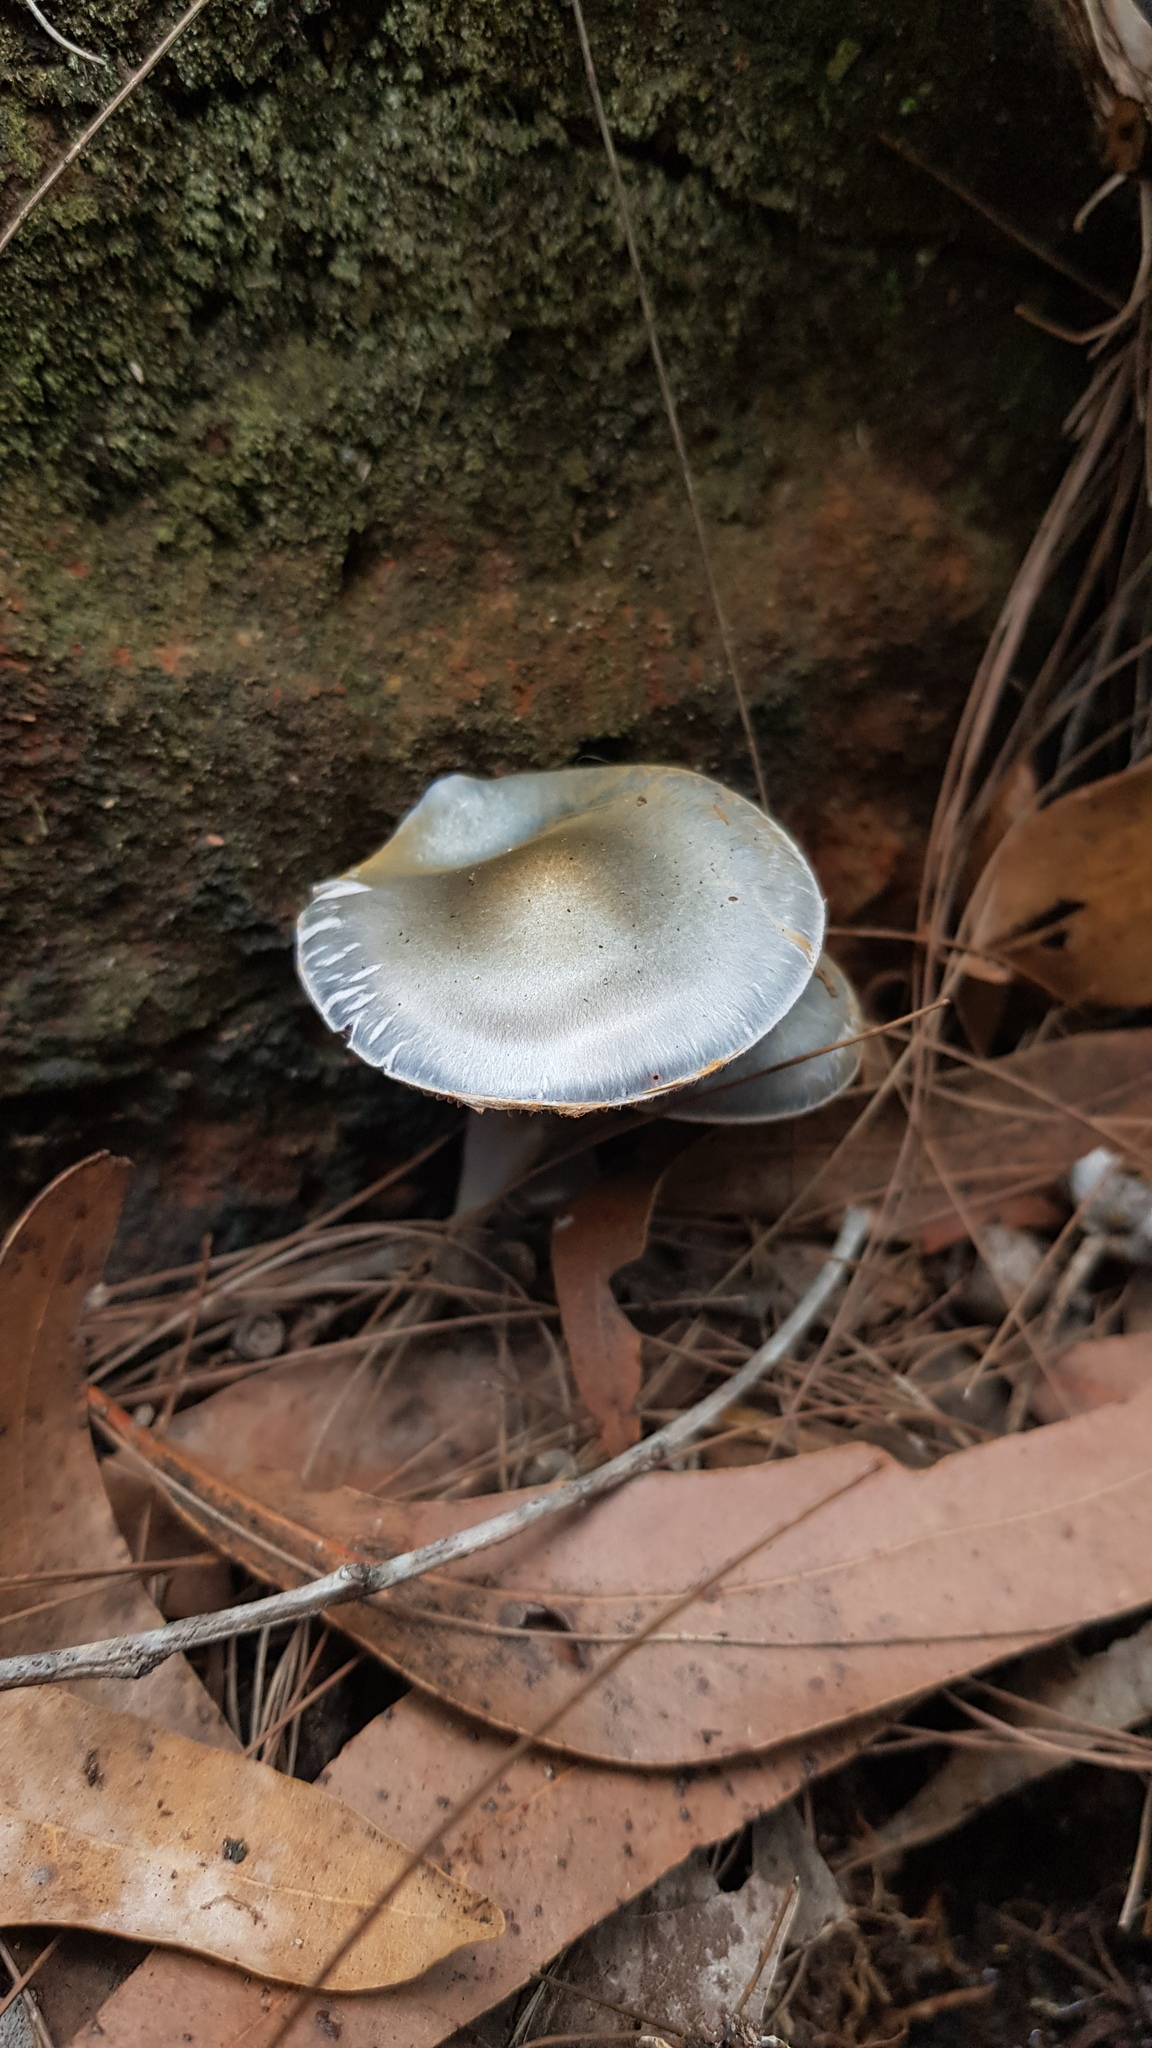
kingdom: Fungi
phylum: Basidiomycota
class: Agaricomycetes
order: Agaricales
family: Cortinariaceae
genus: Cortinarius
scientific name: Cortinarius rotundisporus
